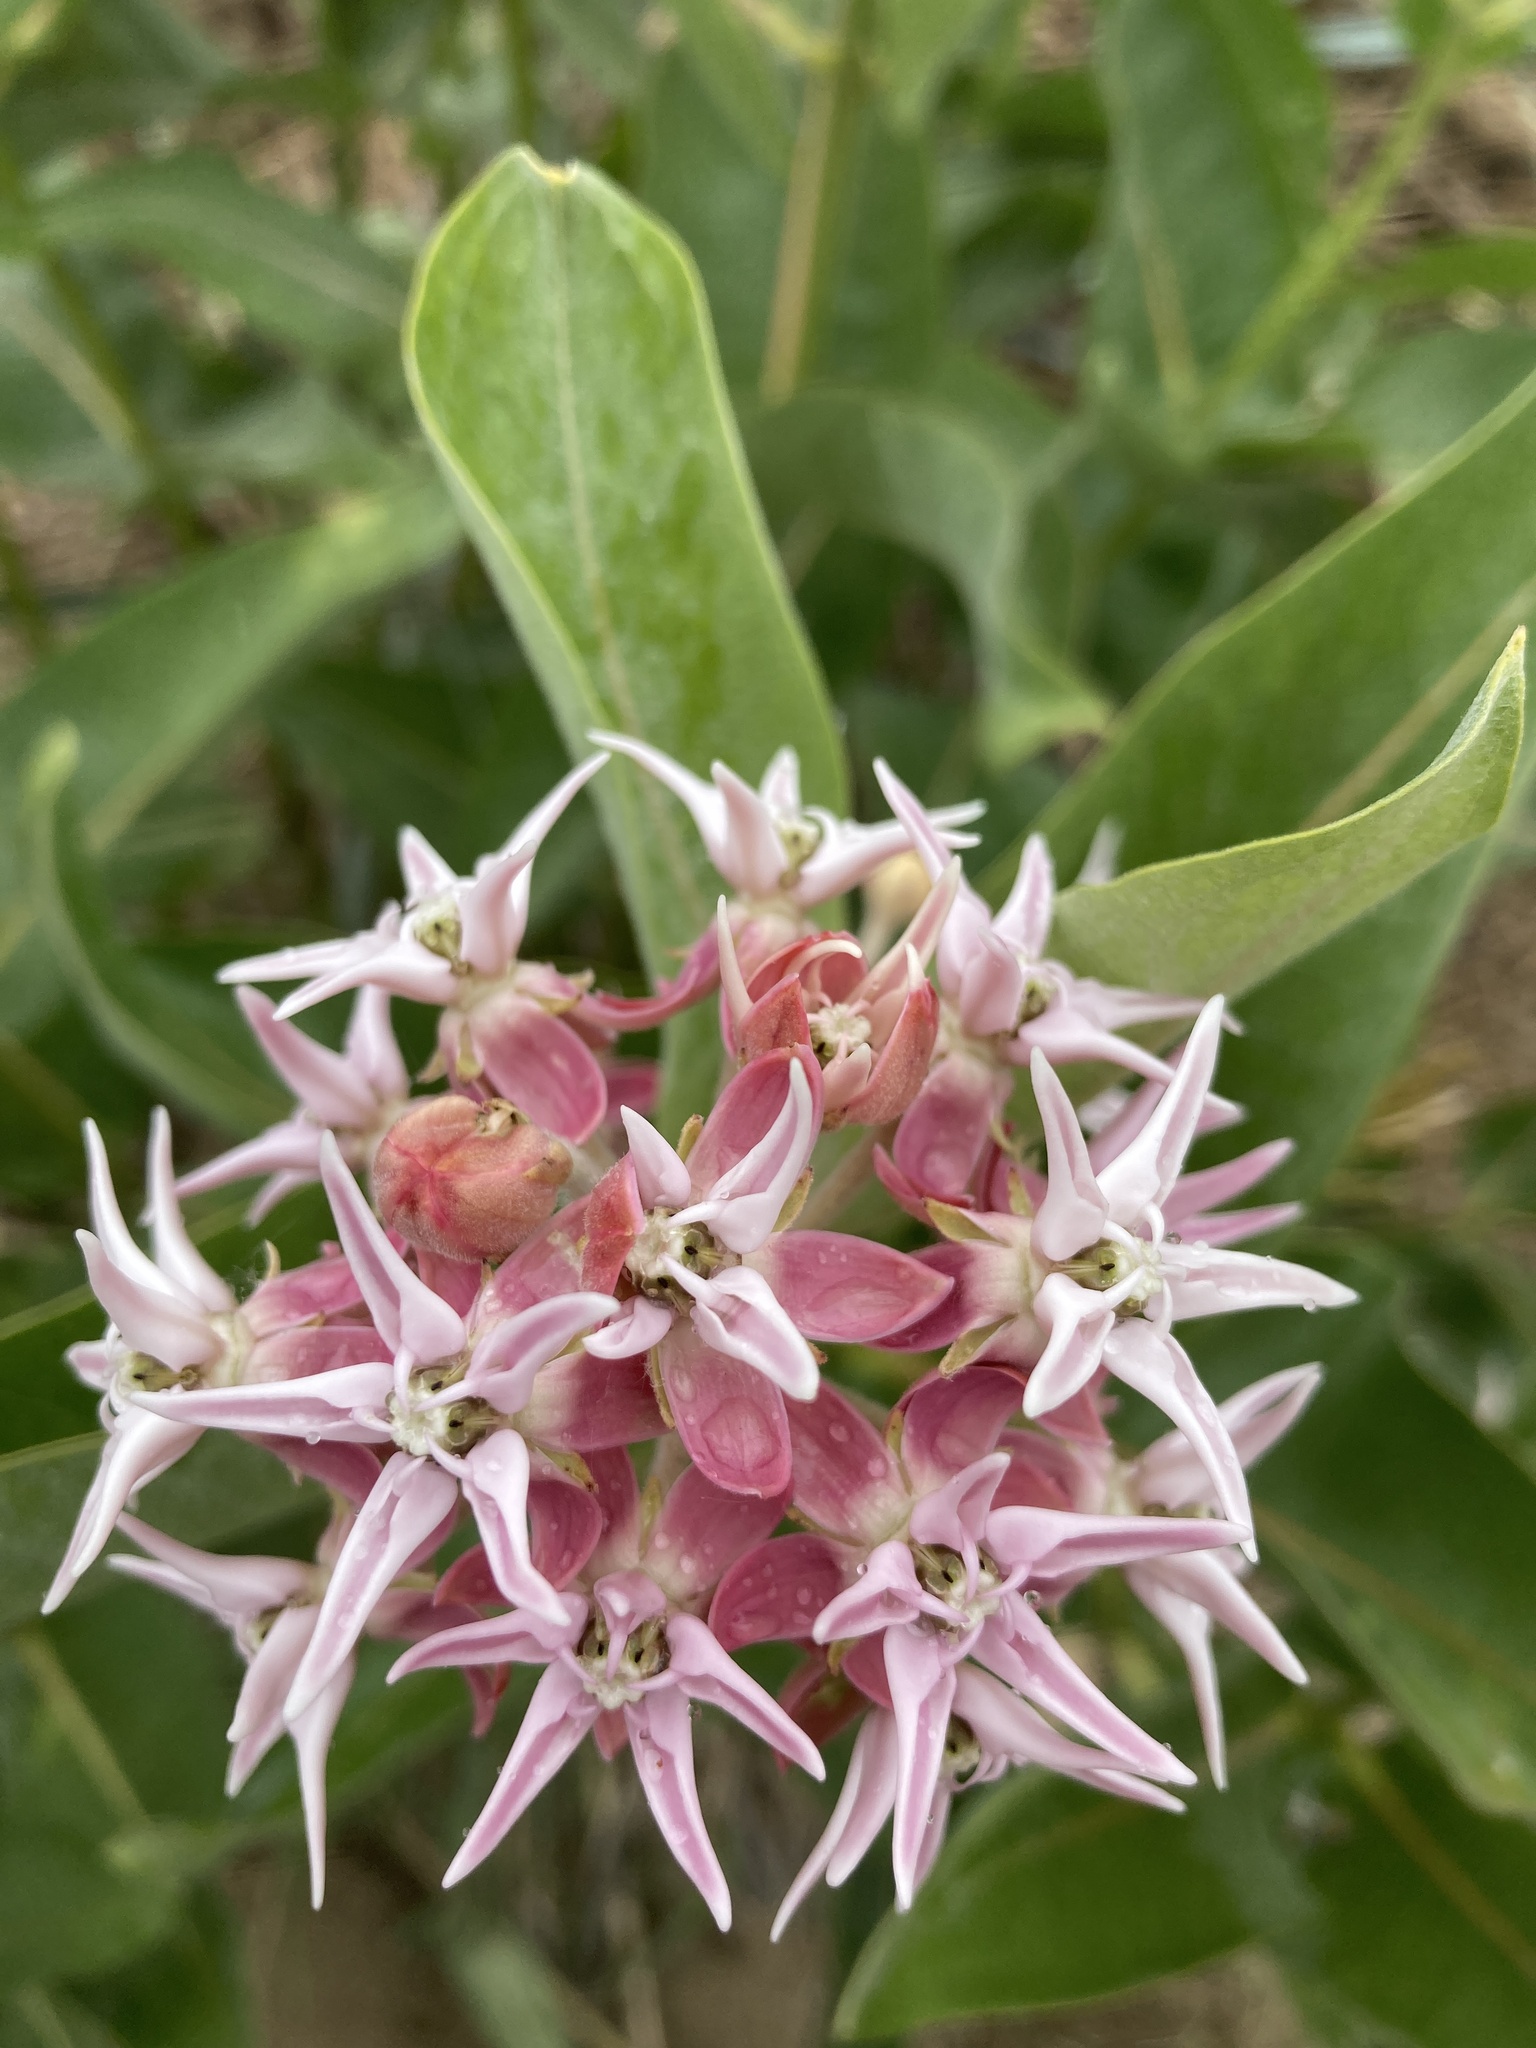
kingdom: Plantae
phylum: Tracheophyta
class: Magnoliopsida
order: Gentianales
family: Apocynaceae
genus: Asclepias
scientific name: Asclepias speciosa
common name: Showy milkweed
